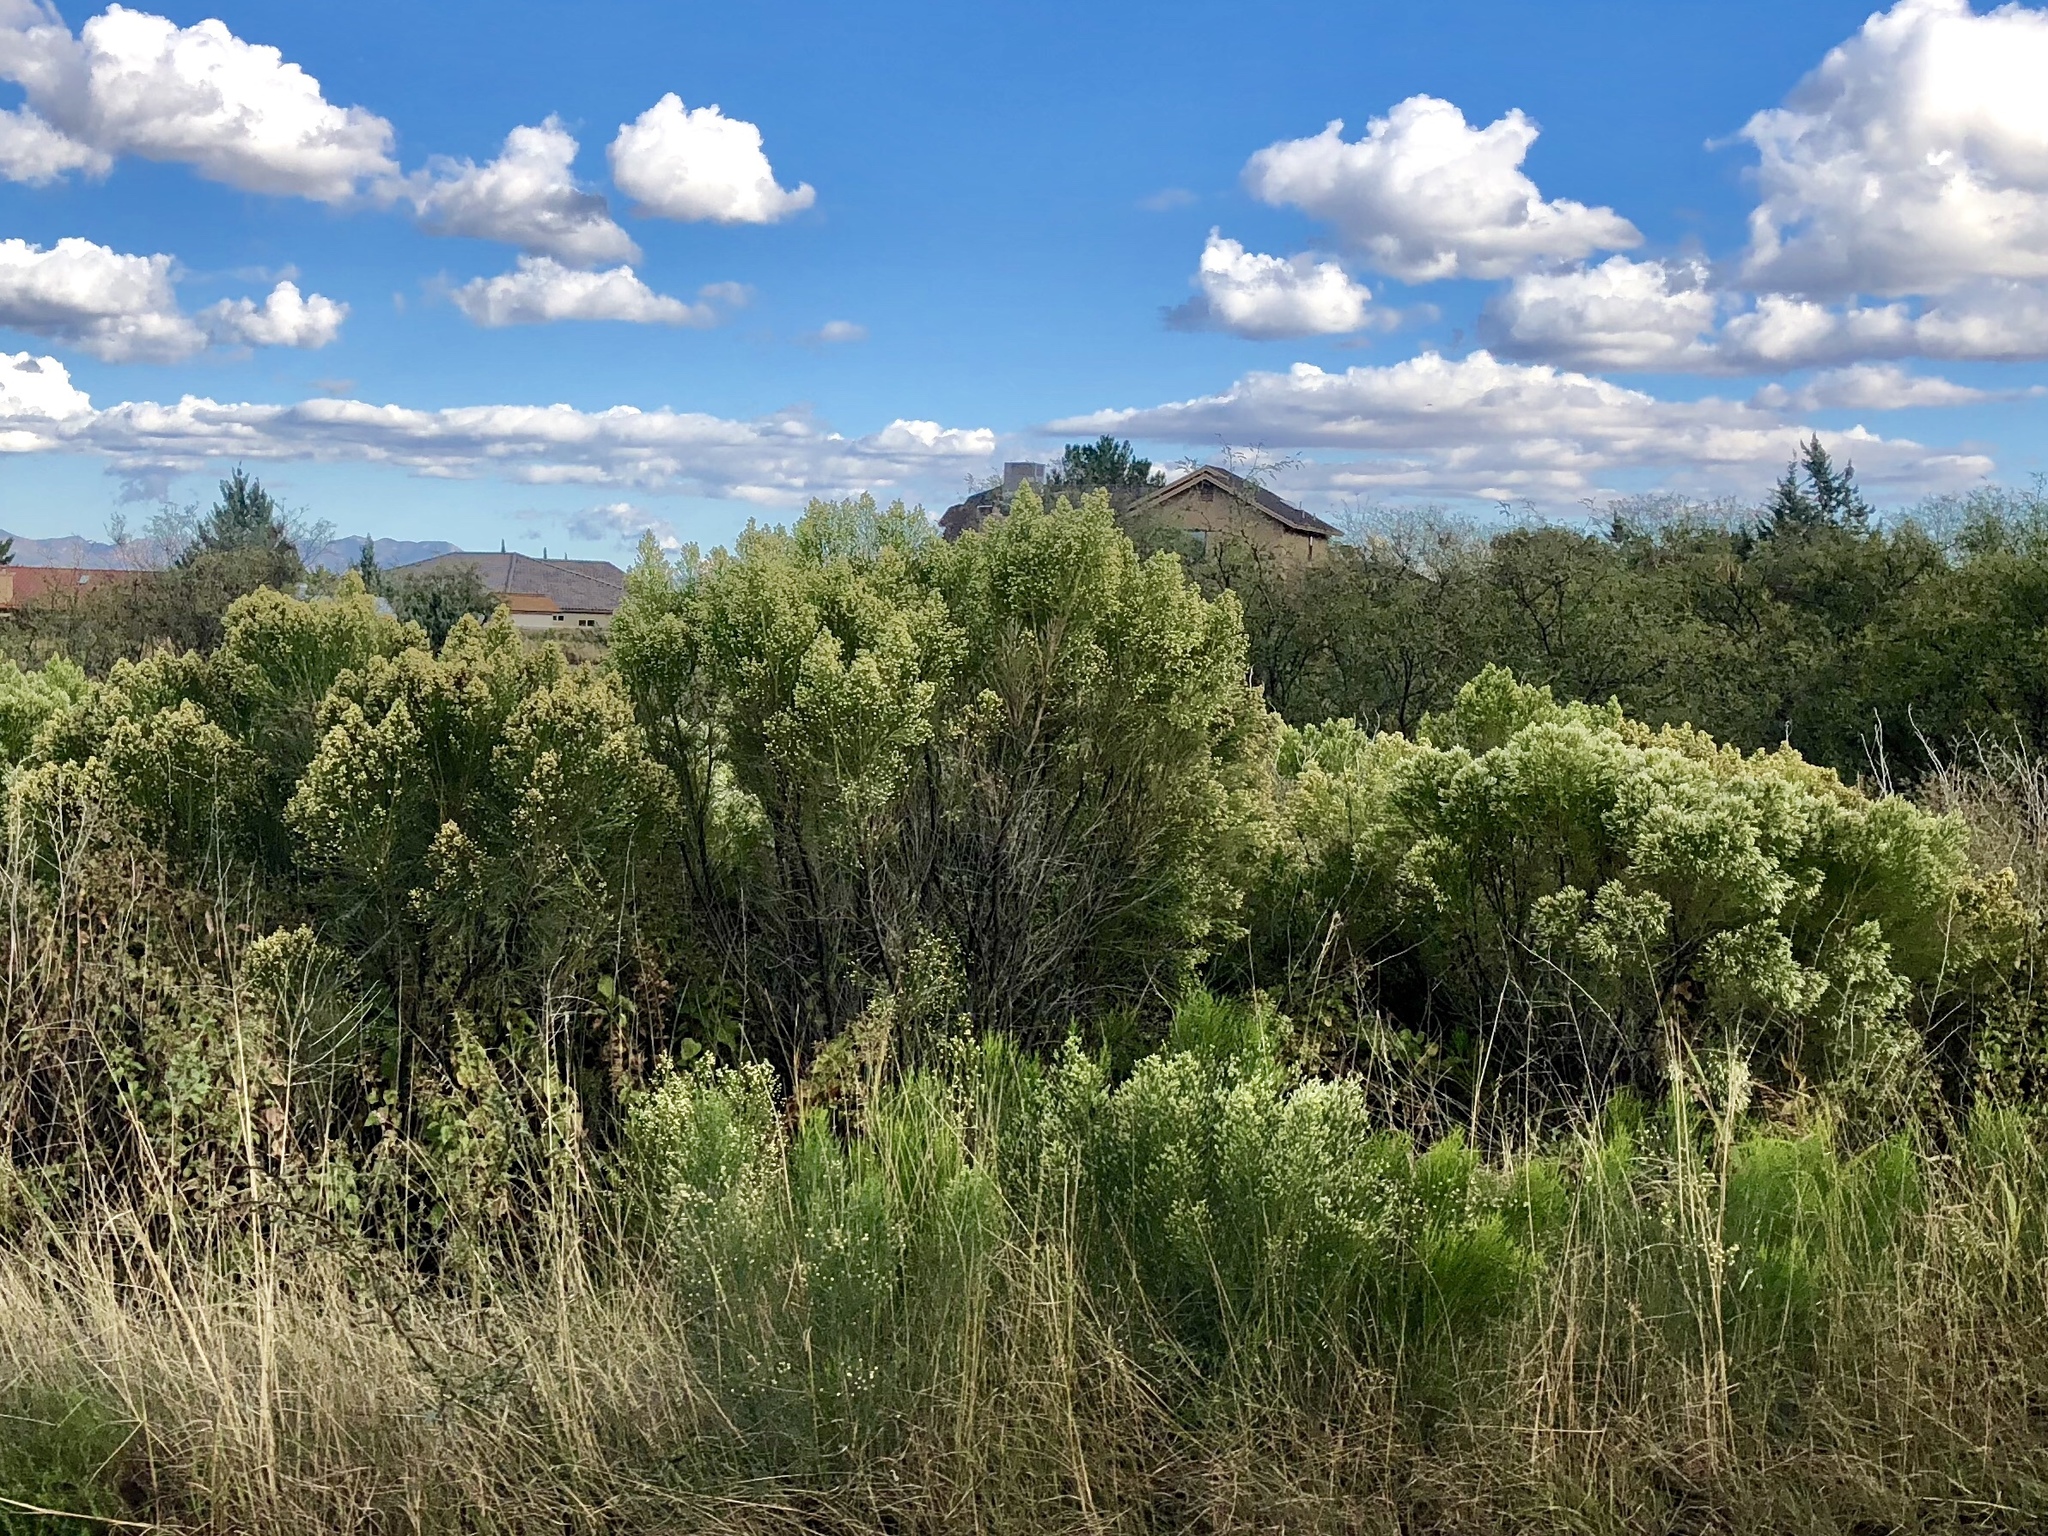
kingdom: Plantae
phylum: Tracheophyta
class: Magnoliopsida
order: Asterales
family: Asteraceae
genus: Baccharis
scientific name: Baccharis sarothroides
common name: Desert-broom
